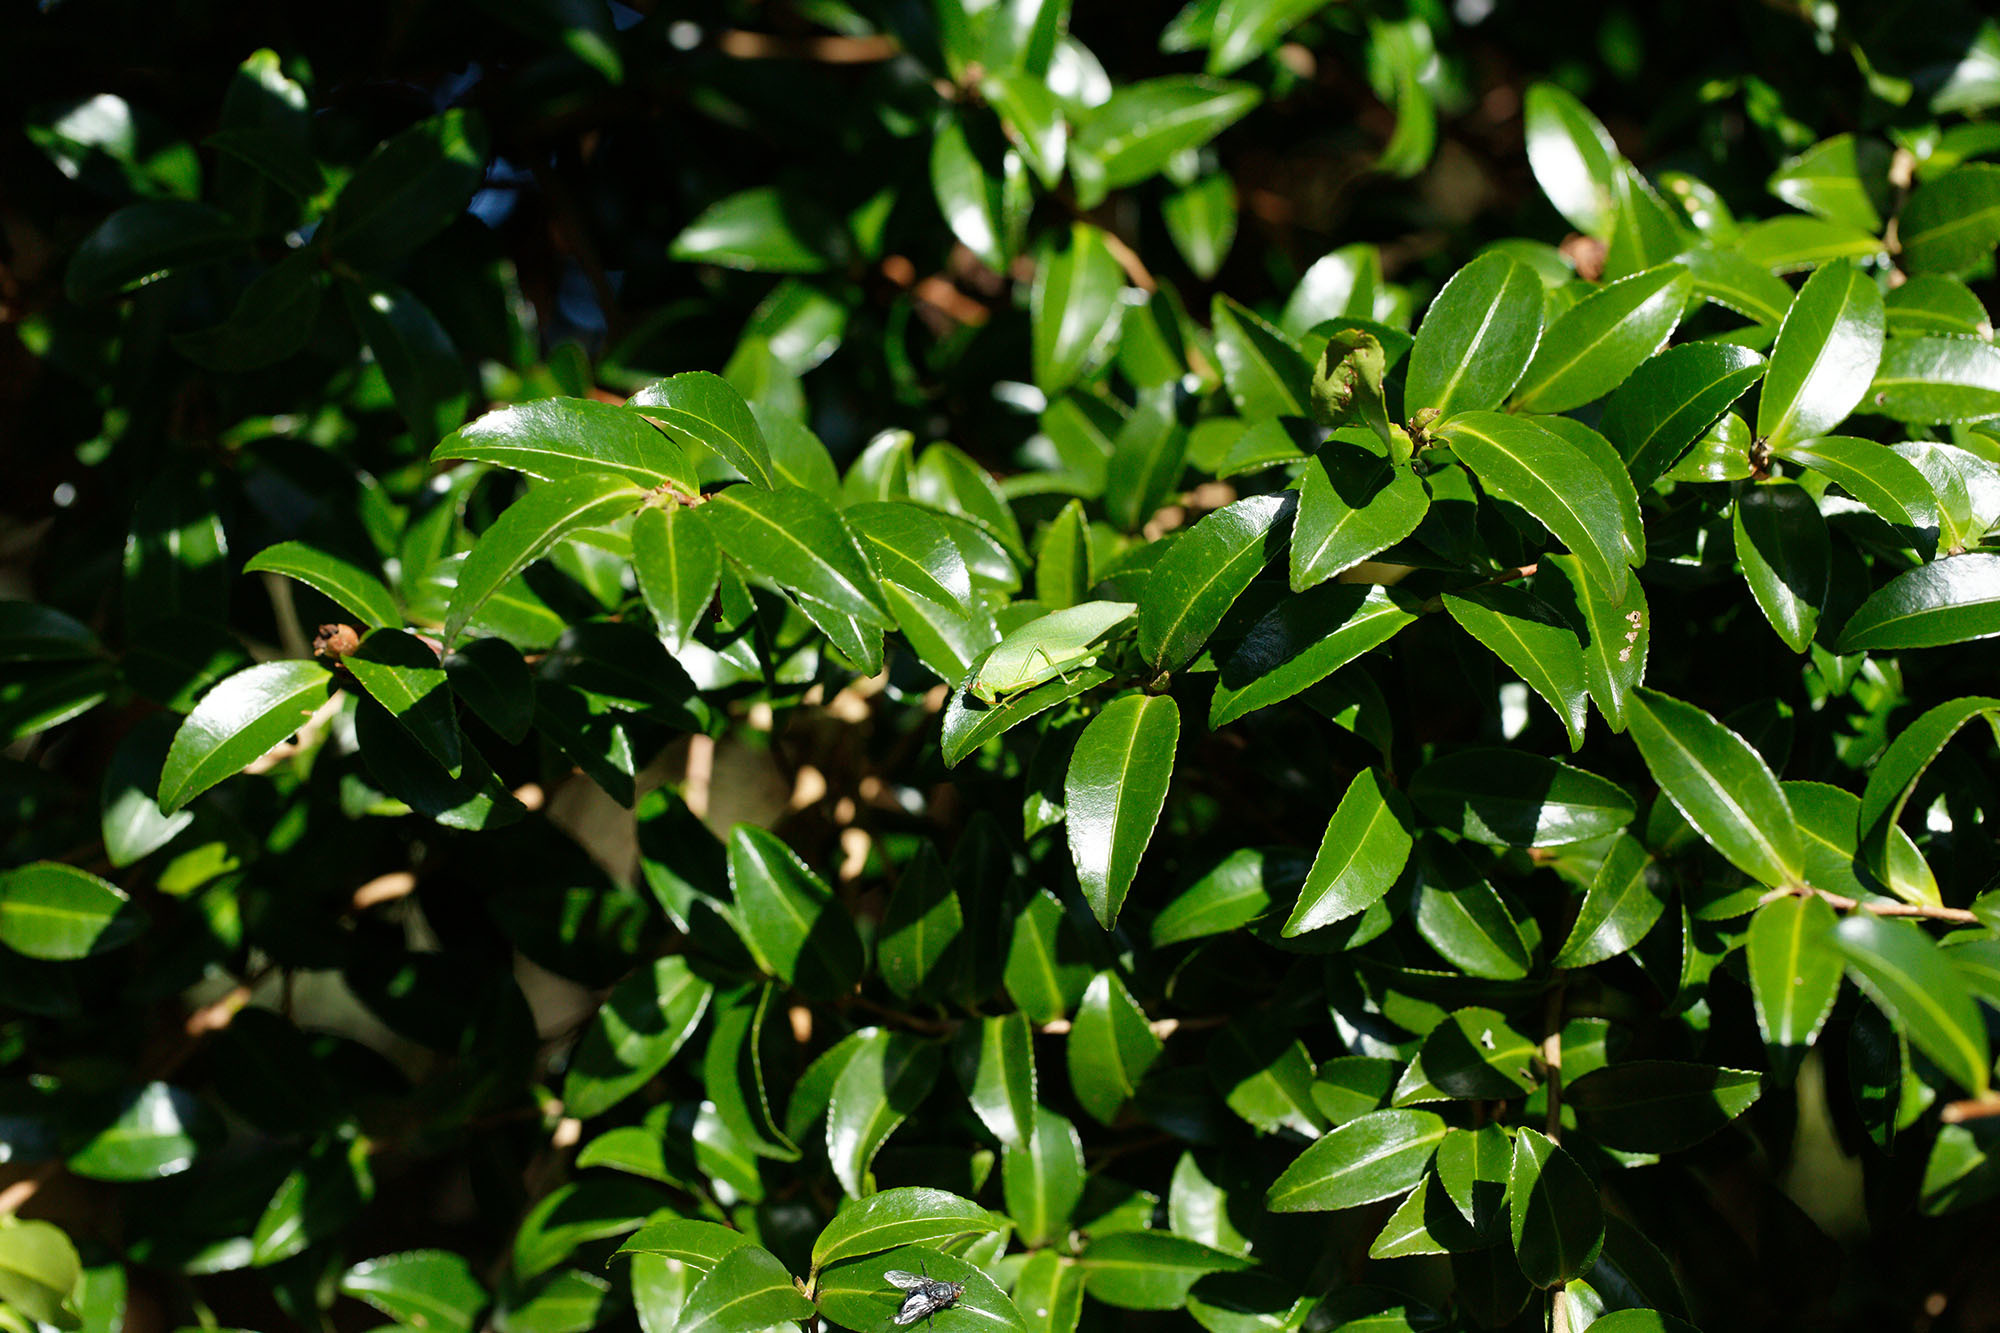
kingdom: Animalia
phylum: Arthropoda
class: Insecta
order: Orthoptera
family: Tettigoniidae
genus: Caedicia
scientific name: Caedicia simplex
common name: Common garden katydid
